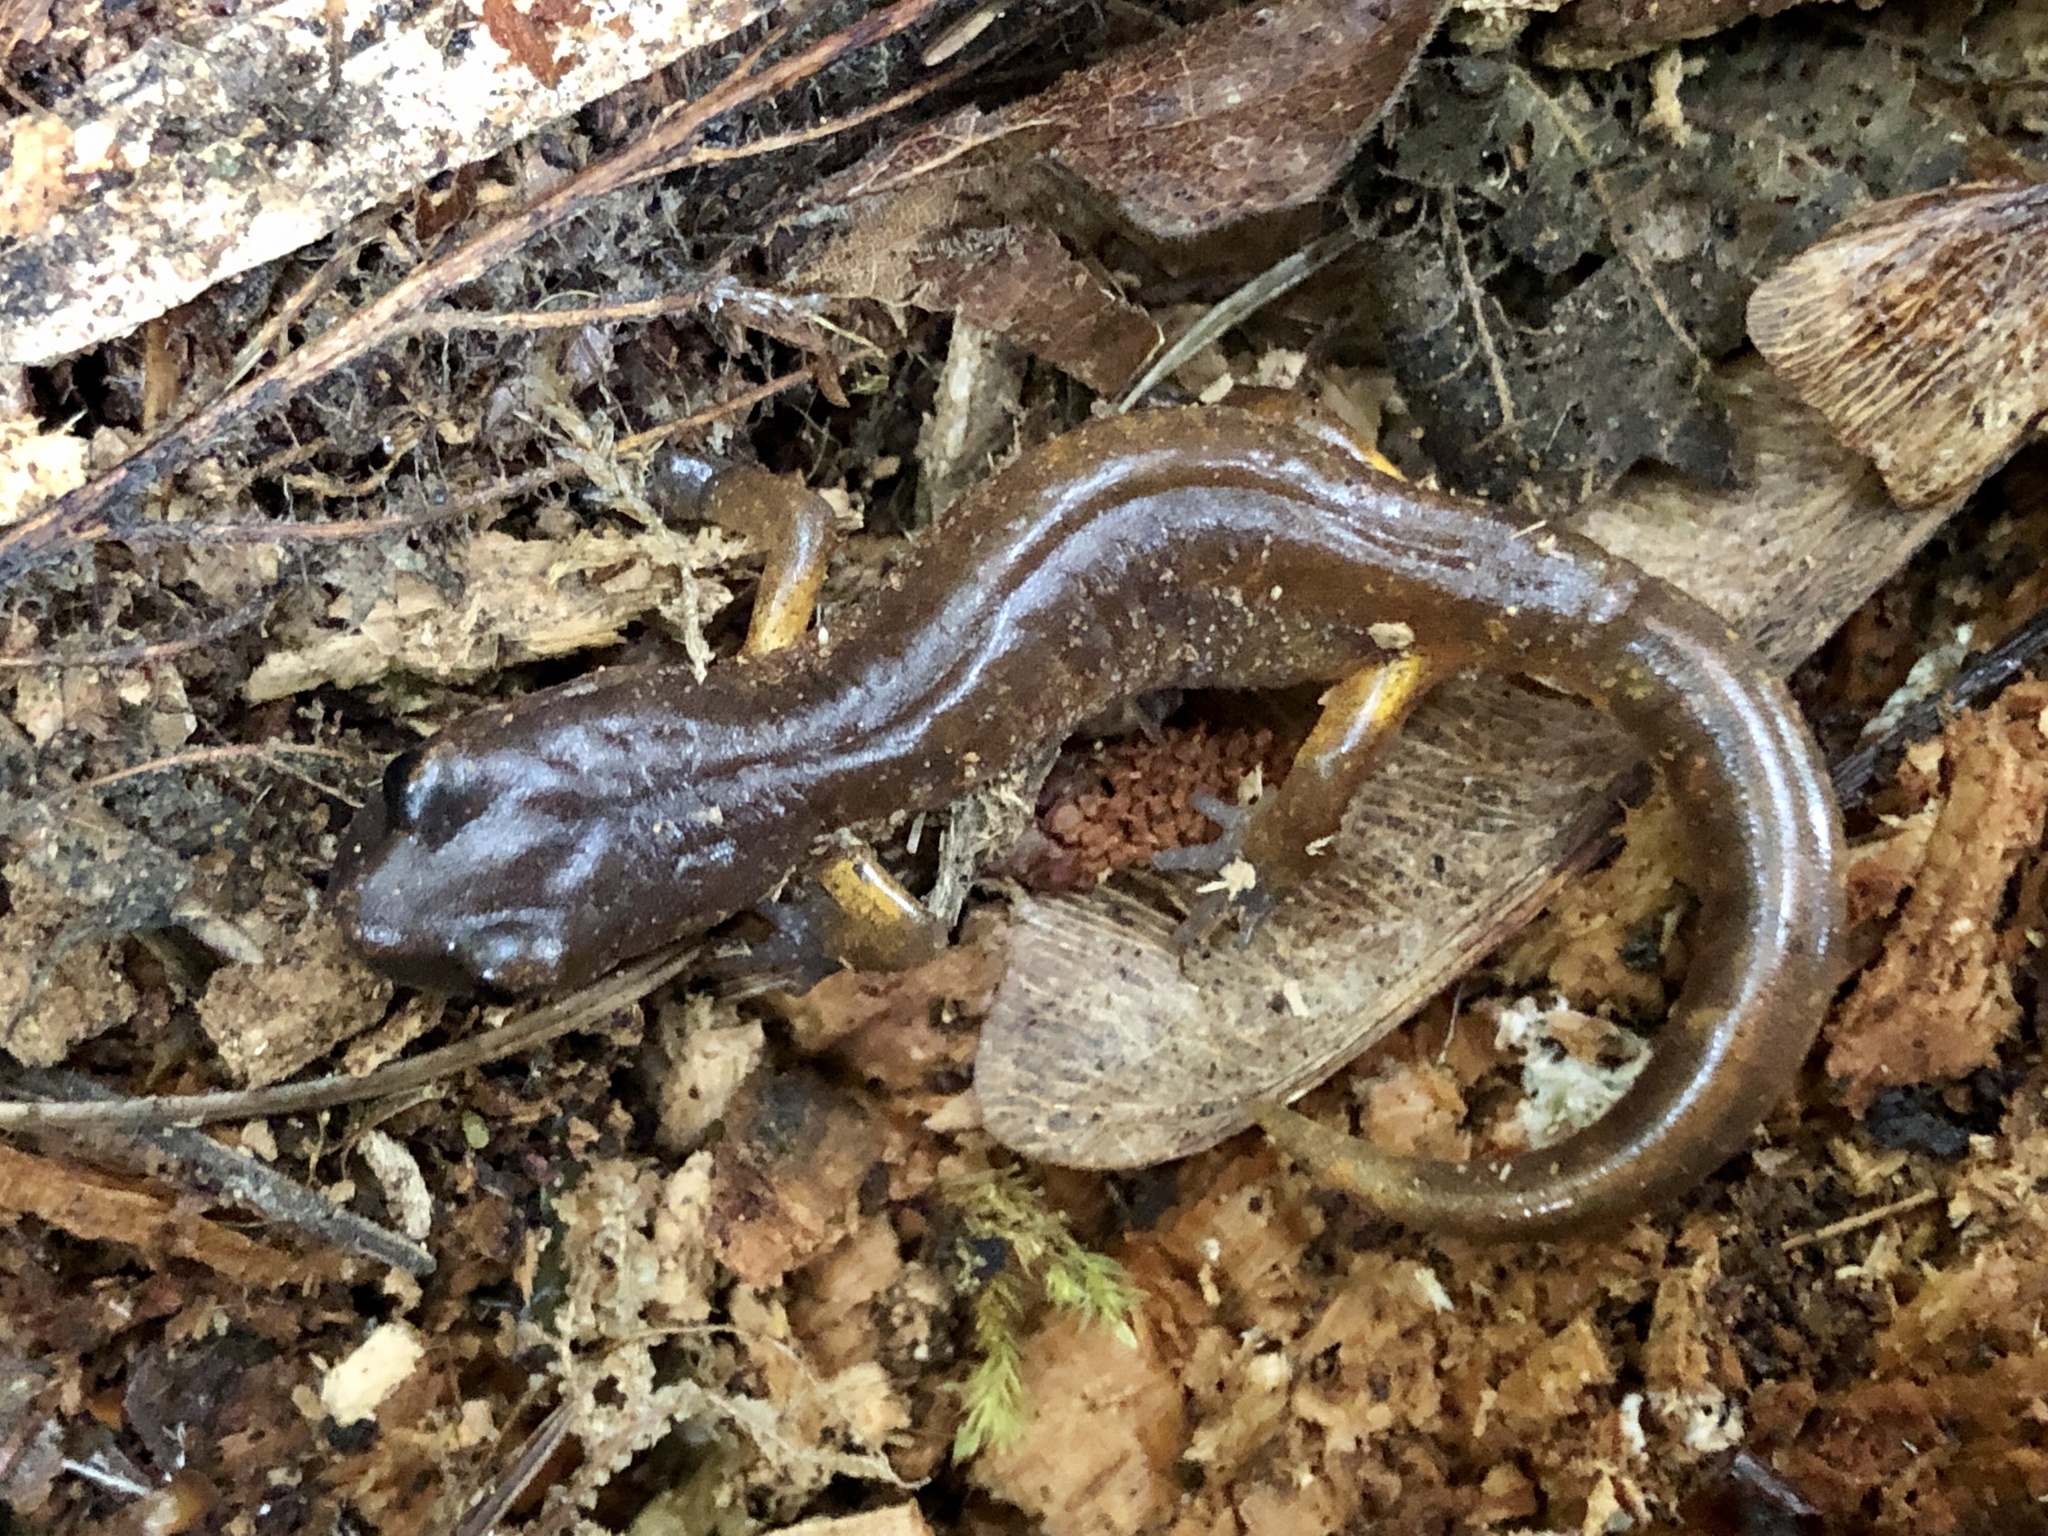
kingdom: Animalia
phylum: Chordata
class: Amphibia
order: Caudata
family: Plethodontidae
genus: Ensatina
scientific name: Ensatina eschscholtzii
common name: Ensatina
